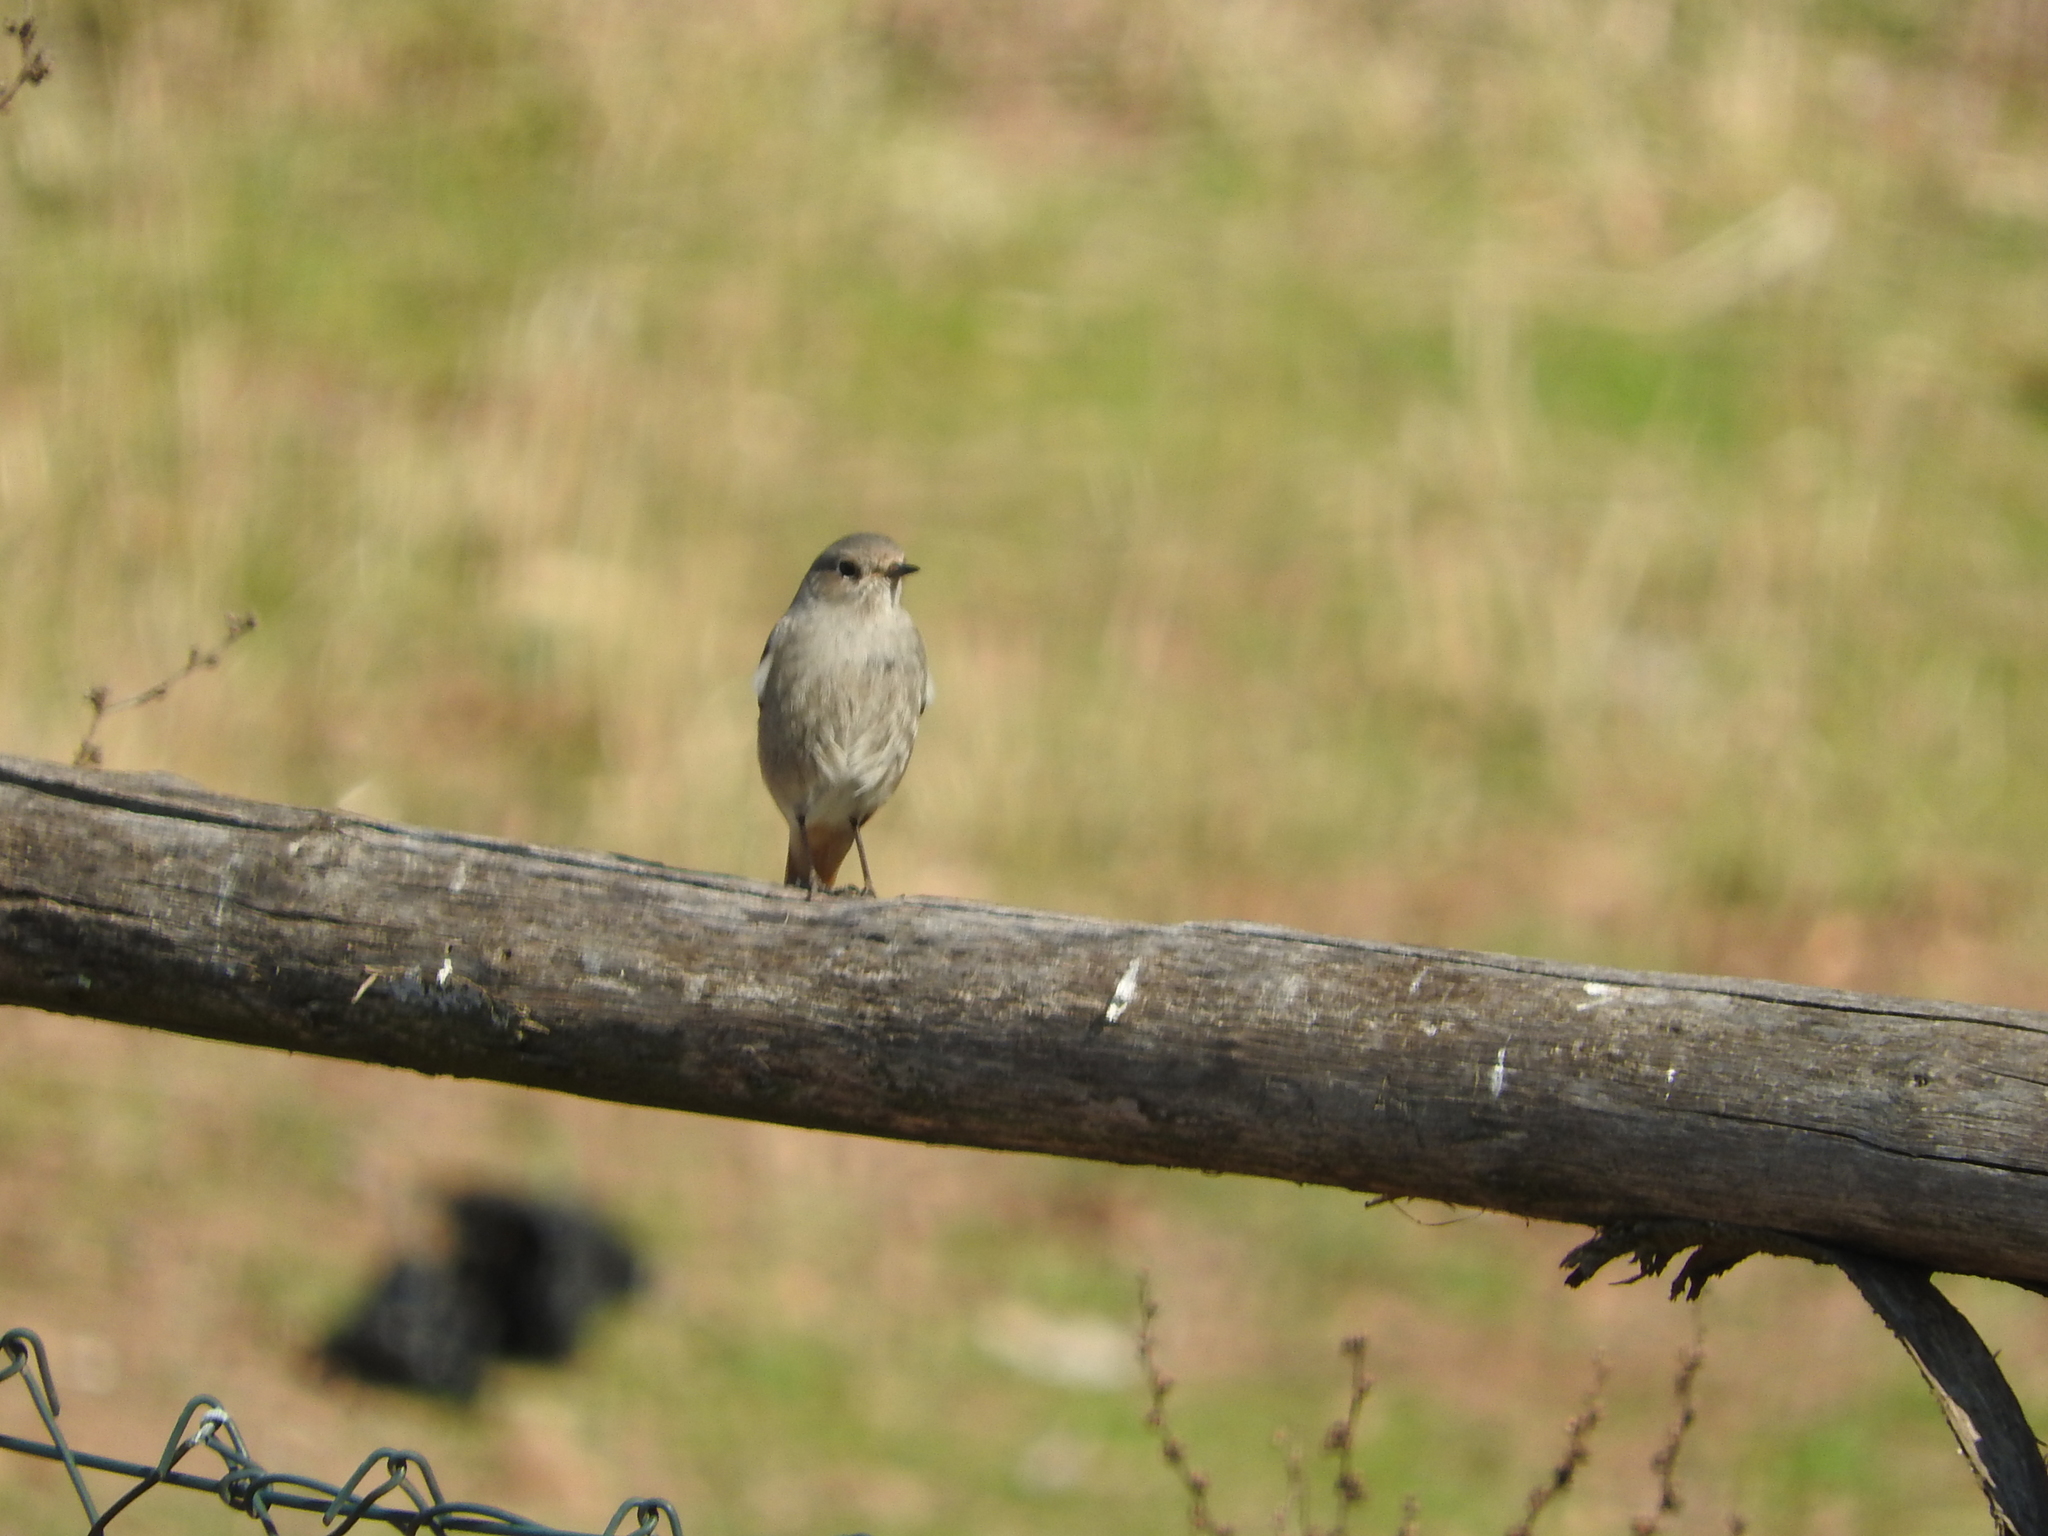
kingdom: Animalia
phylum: Chordata
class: Aves
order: Passeriformes
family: Muscicapidae
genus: Phoenicurus
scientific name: Phoenicurus ochruros
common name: Black redstart
